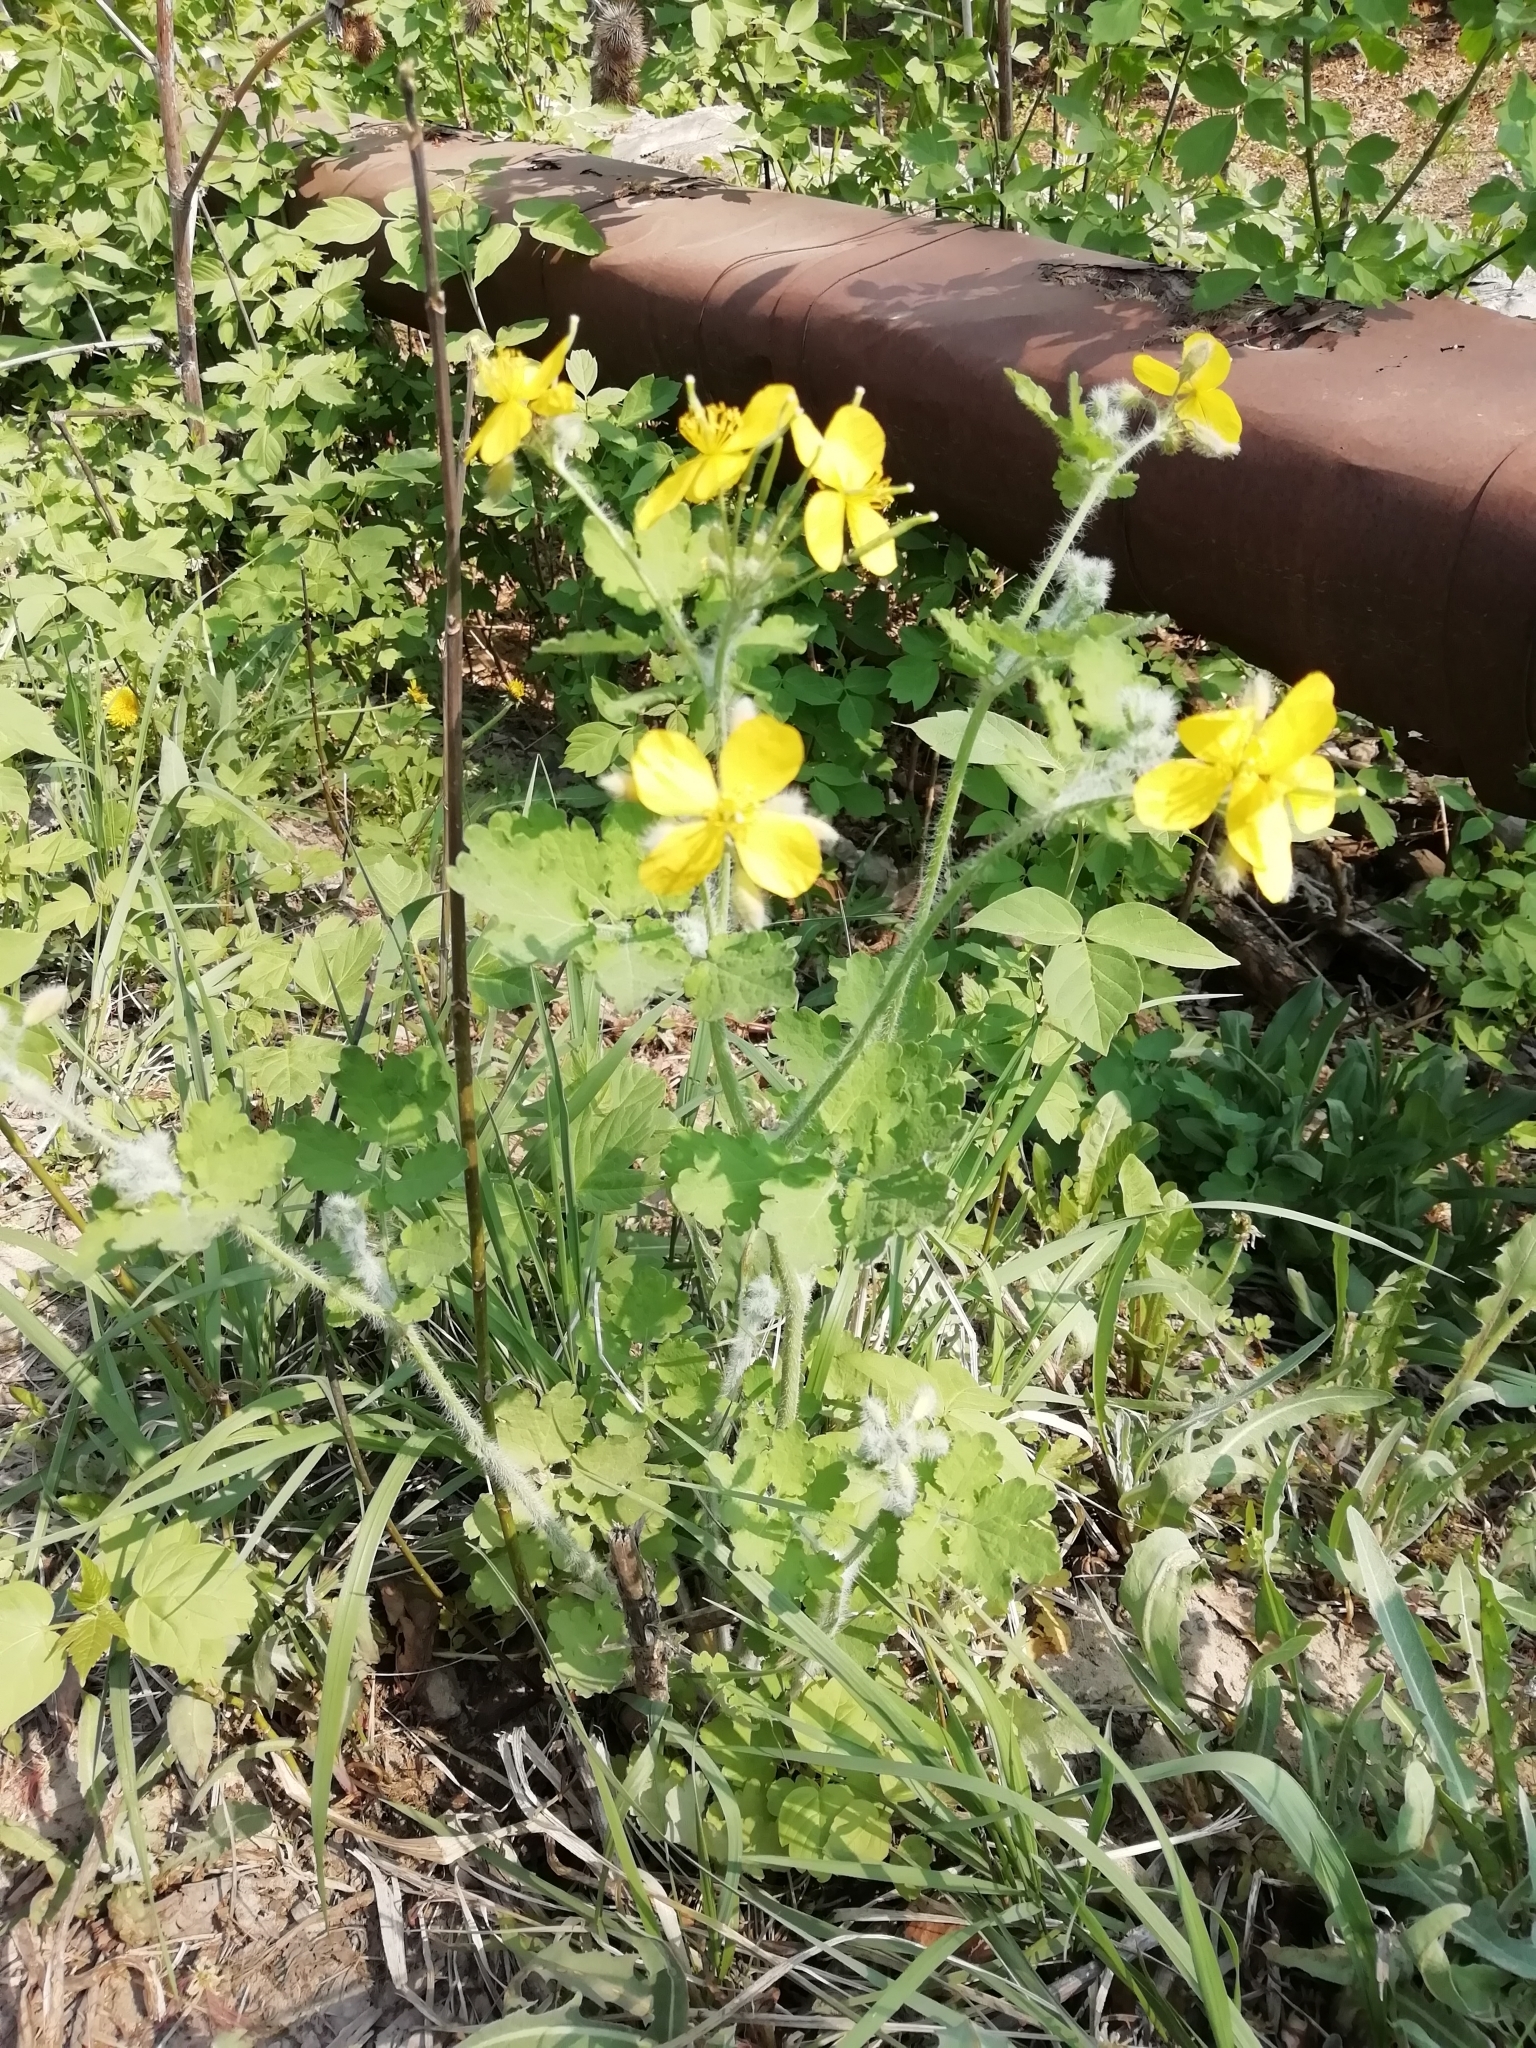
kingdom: Plantae
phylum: Tracheophyta
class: Magnoliopsida
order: Ranunculales
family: Papaveraceae
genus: Chelidonium
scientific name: Chelidonium majus
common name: Greater celandine
